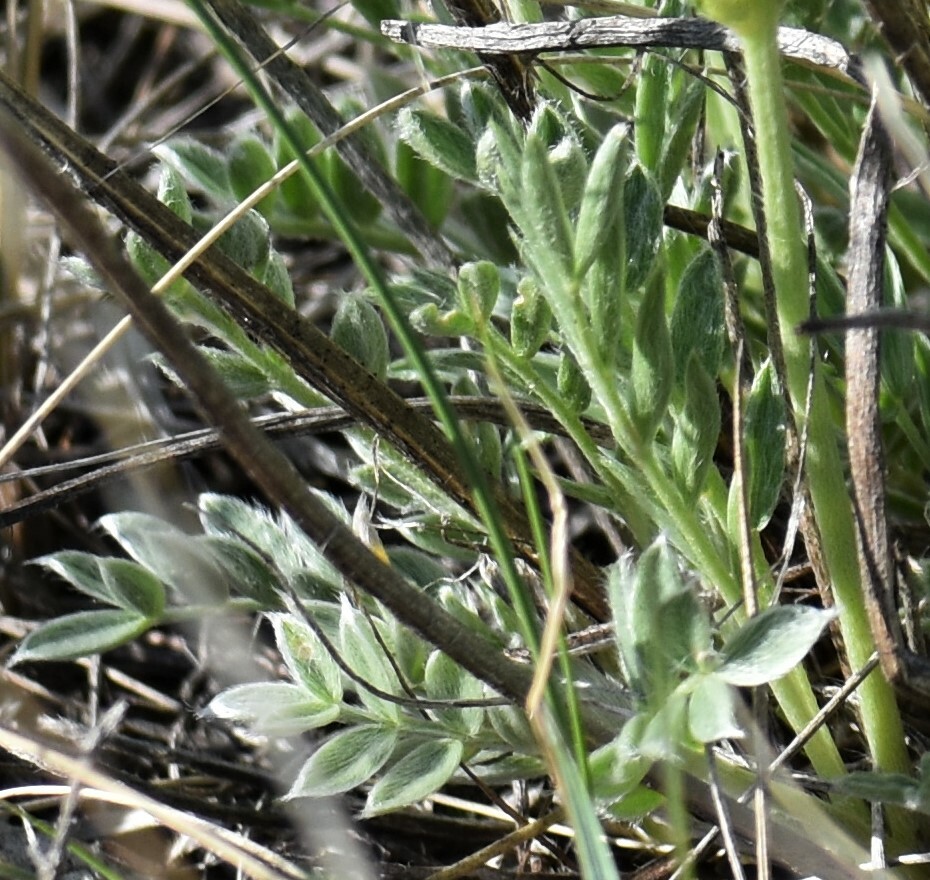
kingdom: Plantae
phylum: Tracheophyta
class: Magnoliopsida
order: Fabales
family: Fabaceae
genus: Oxytropis
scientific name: Oxytropis sericea
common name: Silky locoweed
